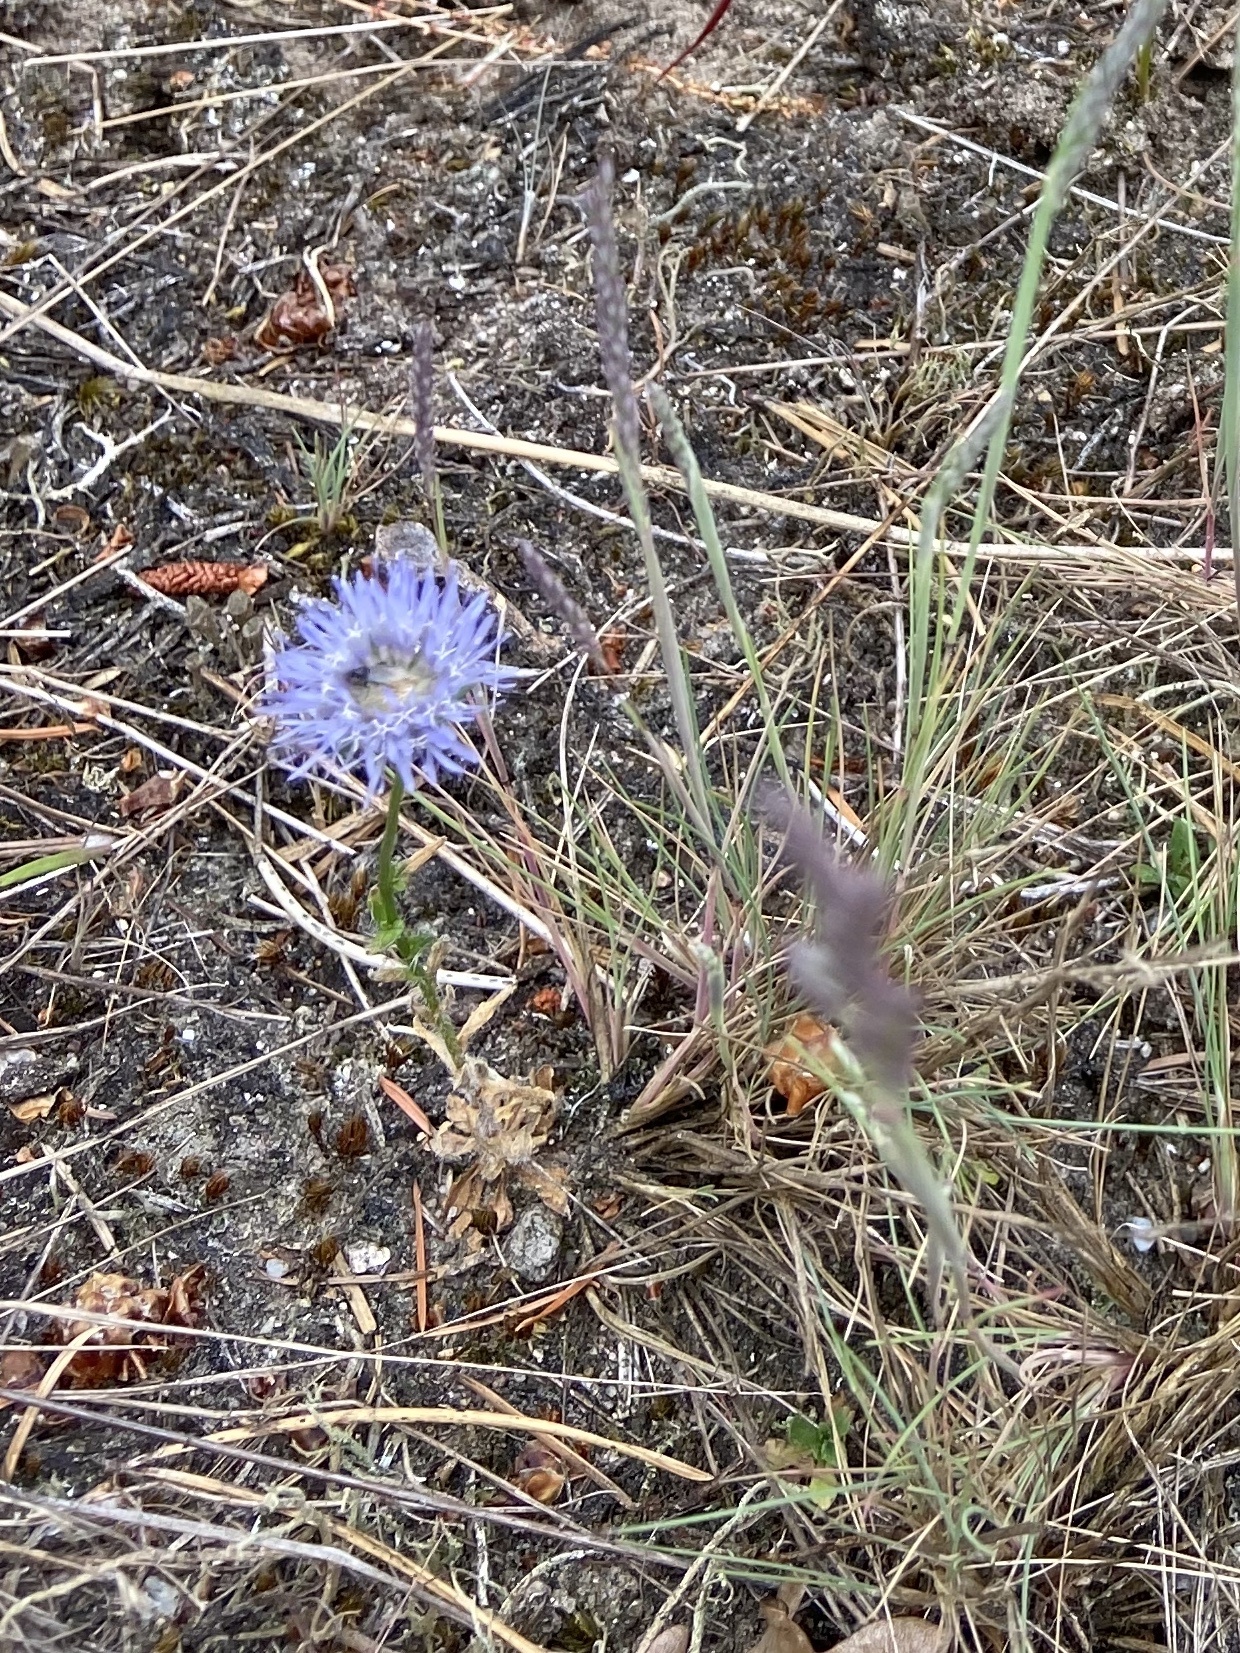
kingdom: Plantae
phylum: Tracheophyta
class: Magnoliopsida
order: Asterales
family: Campanulaceae
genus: Jasione
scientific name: Jasione montana
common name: Sheep's-bit
